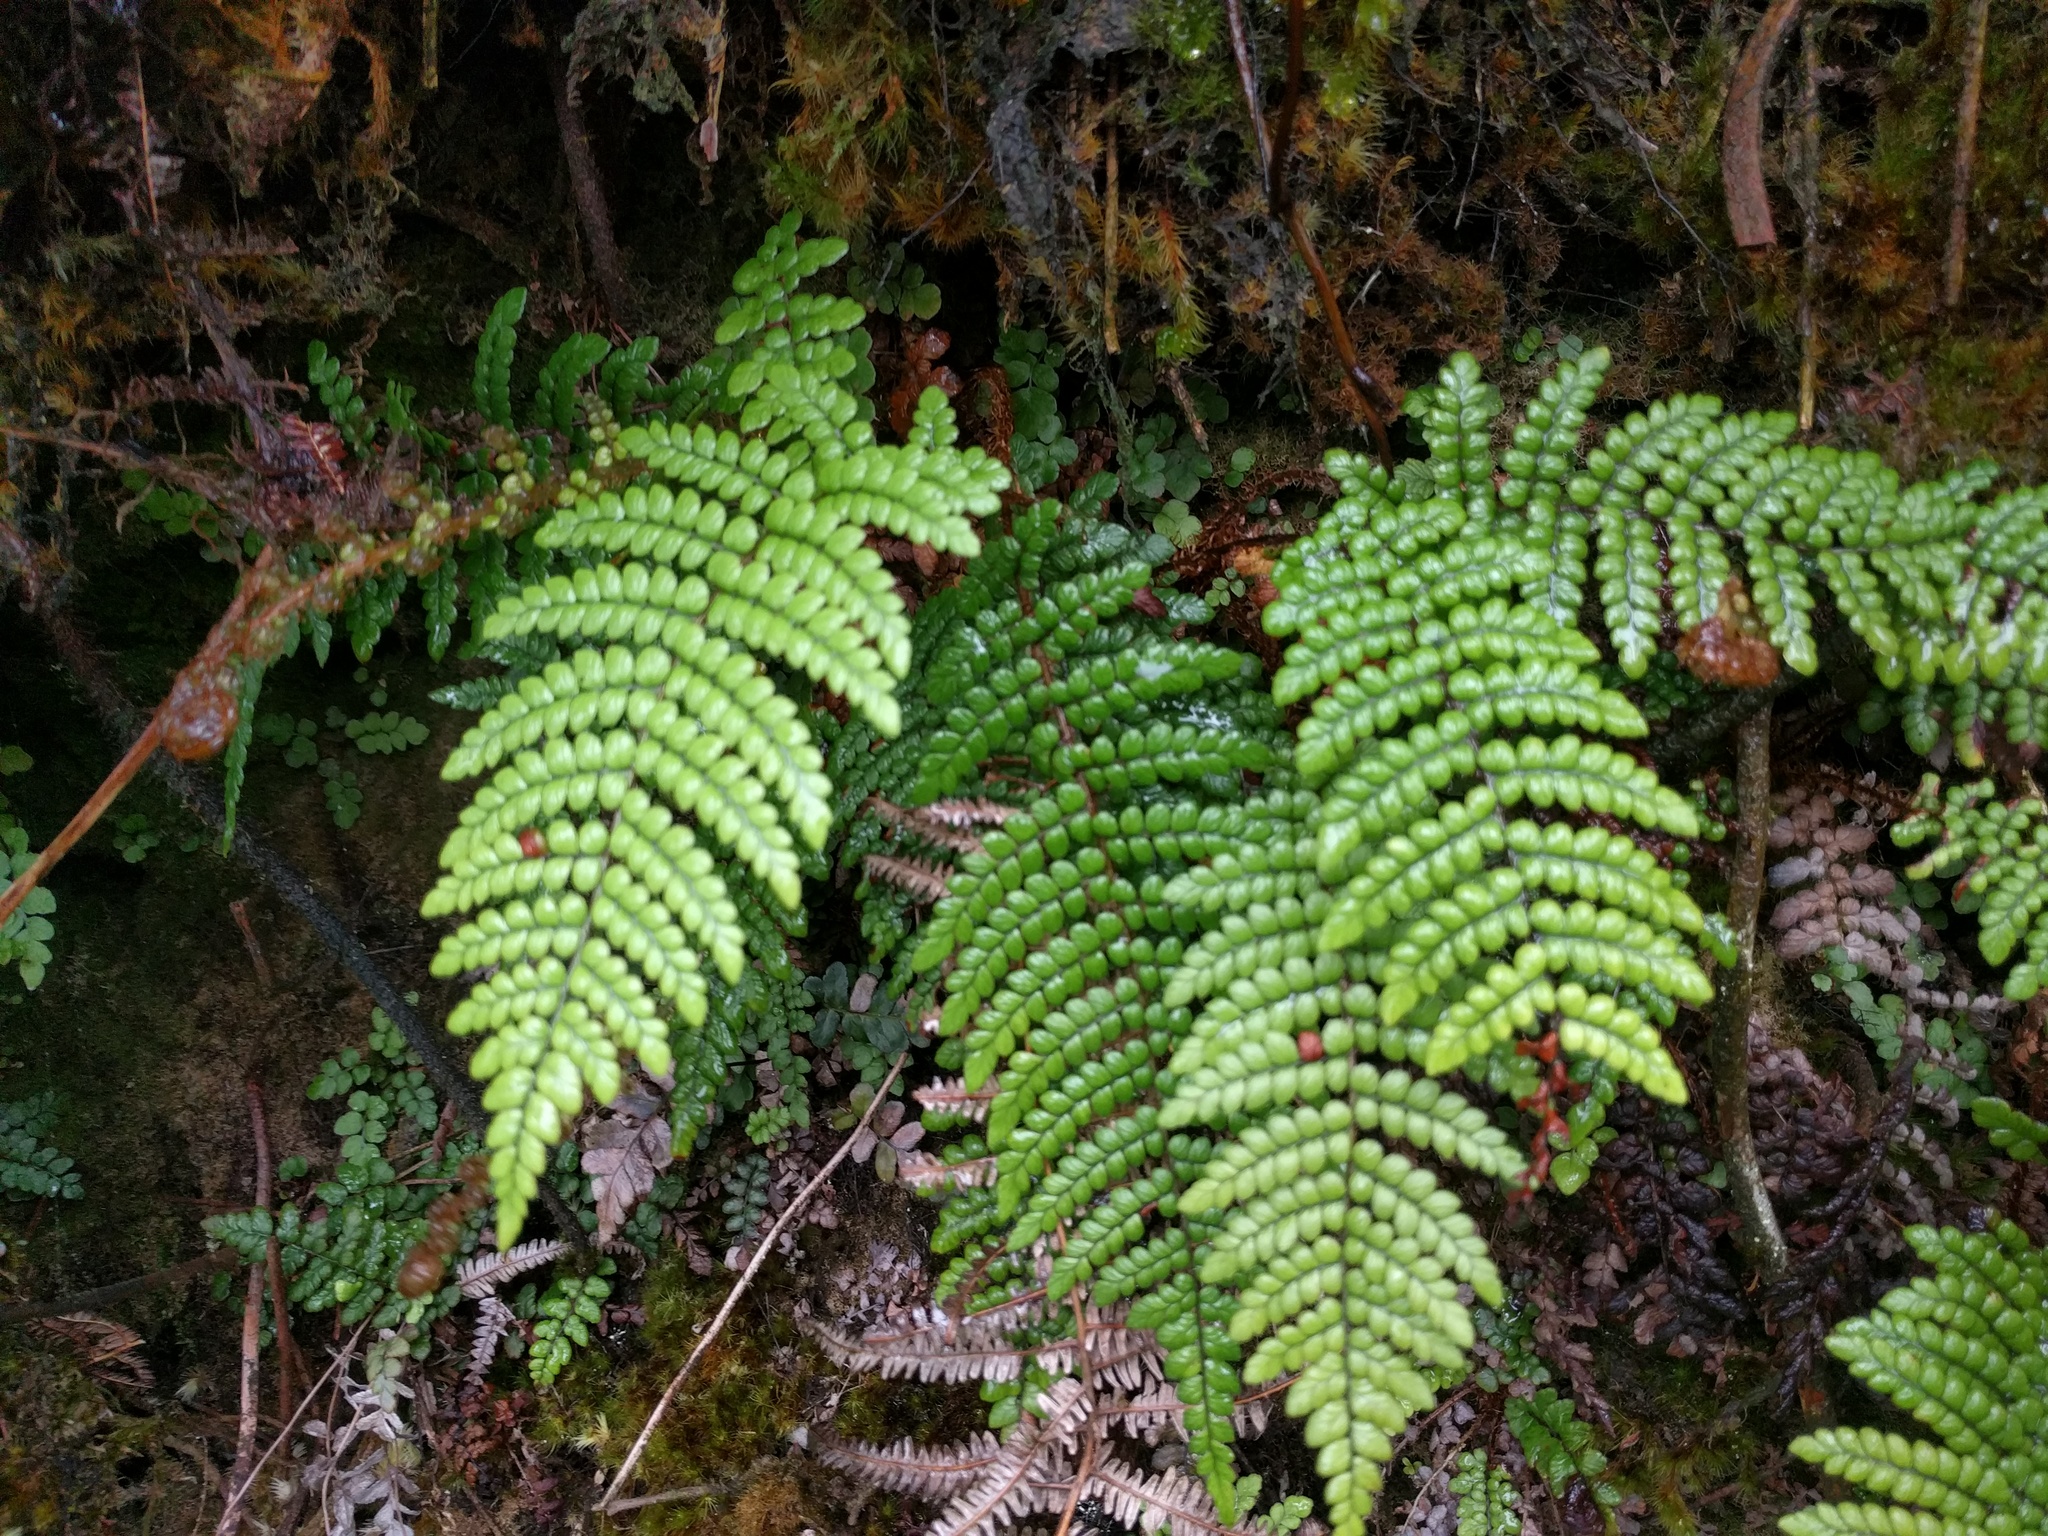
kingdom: Plantae
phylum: Tracheophyta
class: Polypodiopsida
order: Polypodiales
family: Blechnaceae
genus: Sadleria
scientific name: Sadleria squarrosa
